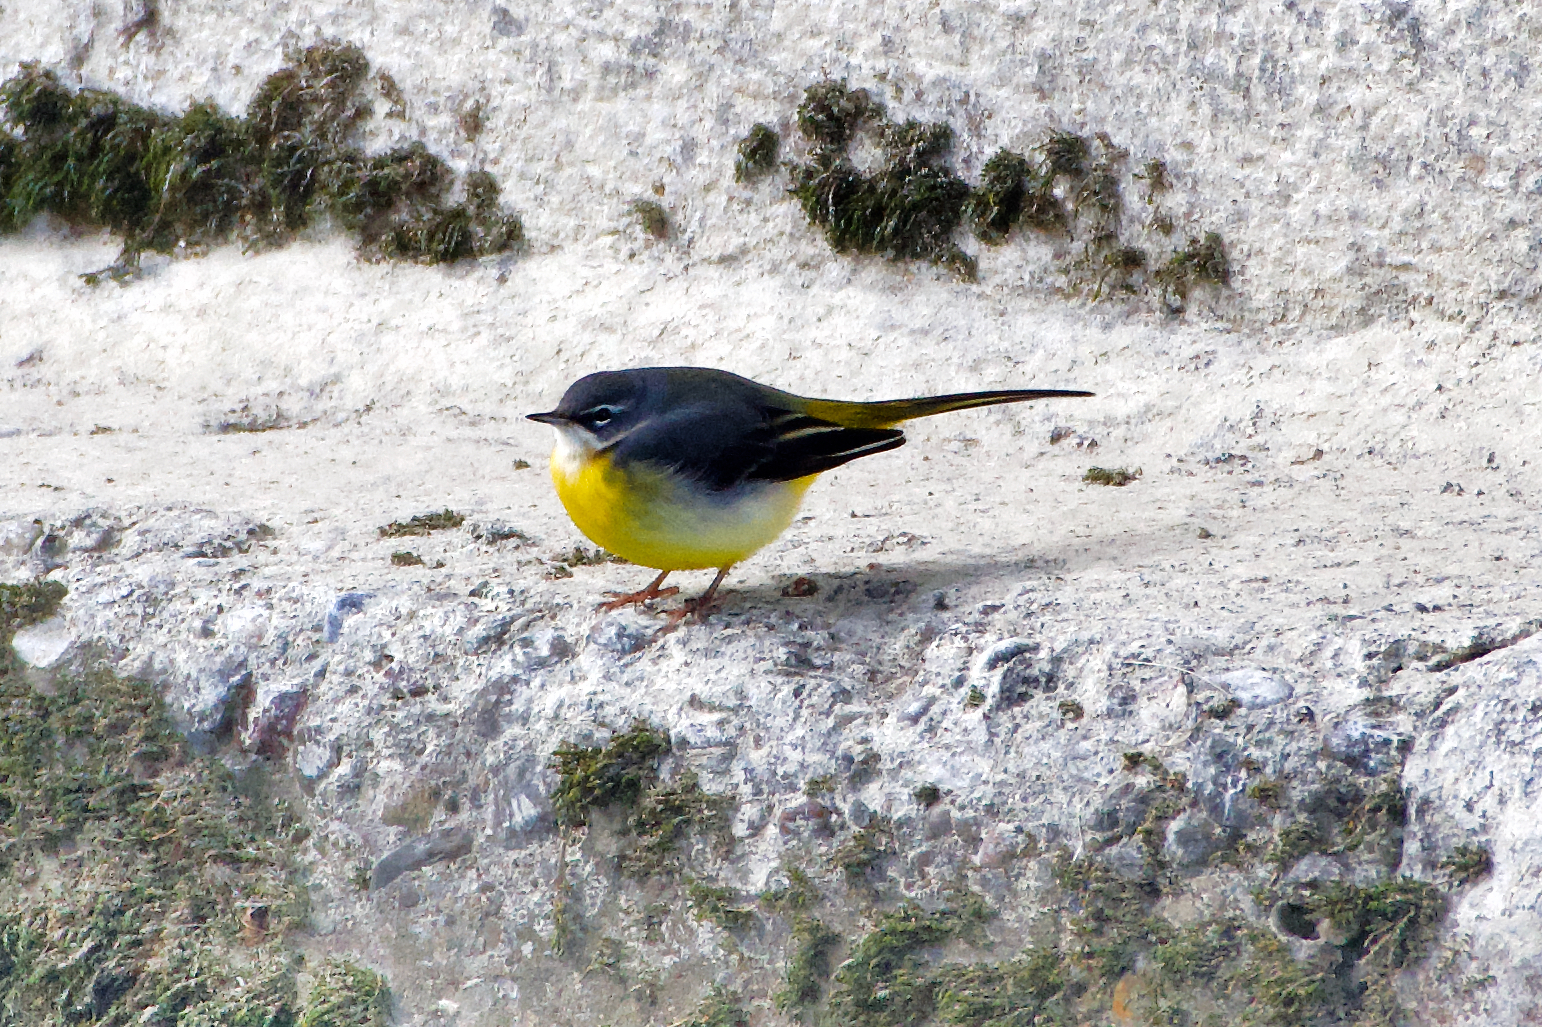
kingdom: Animalia
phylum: Chordata
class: Aves
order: Passeriformes
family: Motacillidae
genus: Motacilla
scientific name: Motacilla cinerea
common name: Grey wagtail
